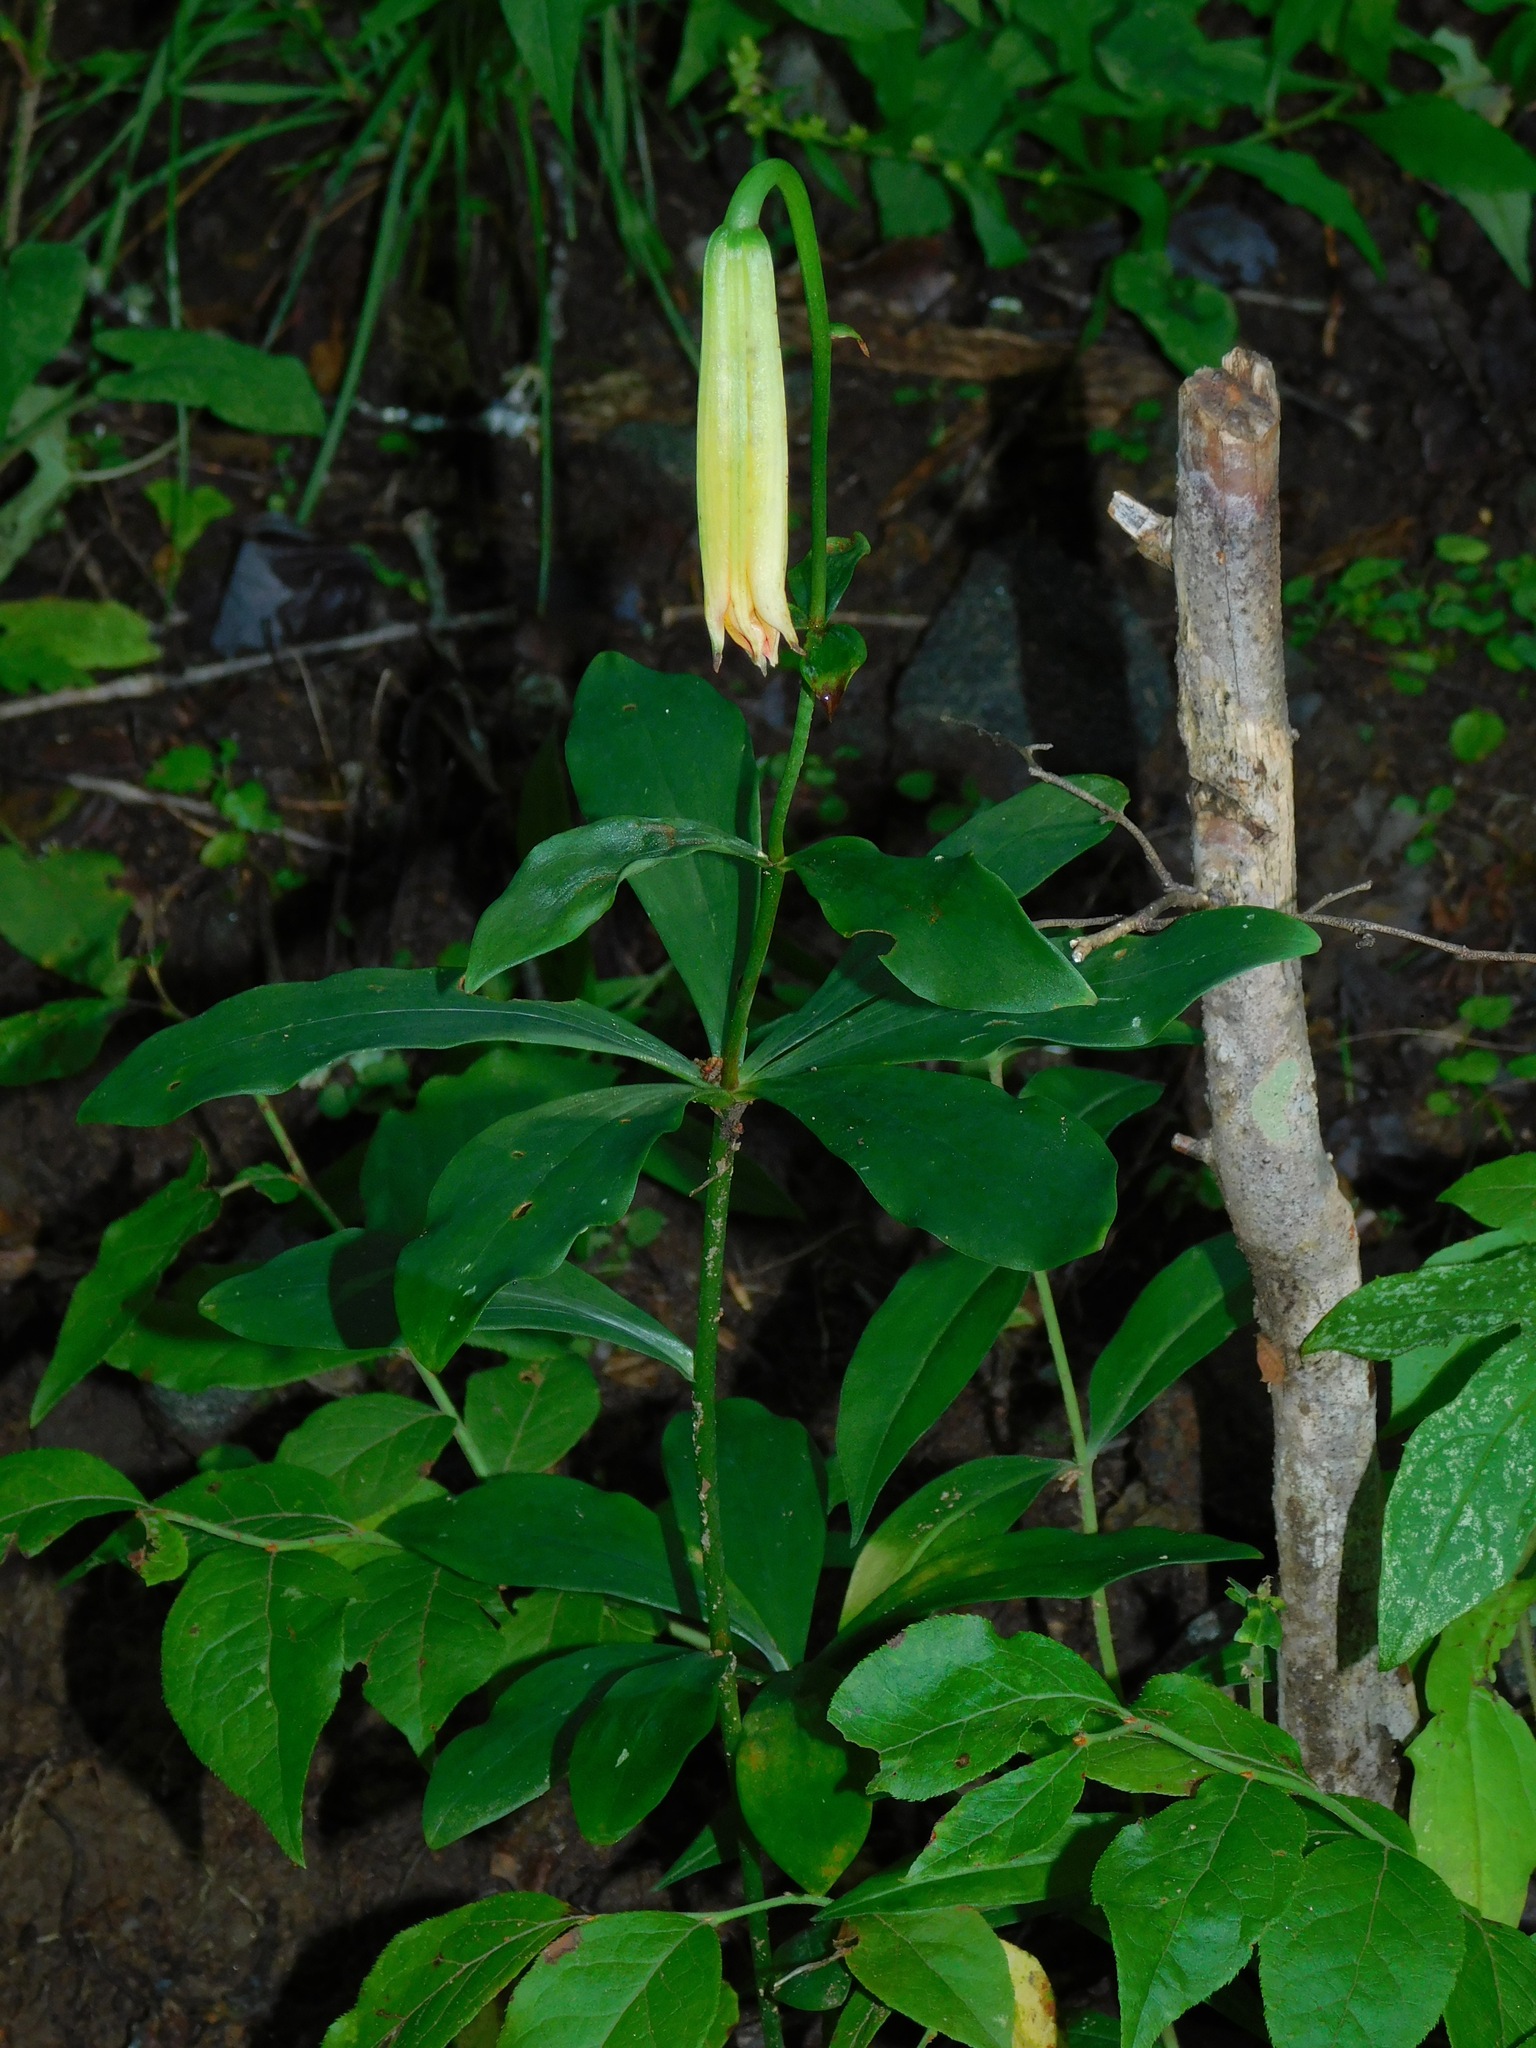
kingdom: Plantae
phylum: Tracheophyta
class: Liliopsida
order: Liliales
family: Liliaceae
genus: Lilium
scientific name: Lilium michauxii
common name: Carolina lily
